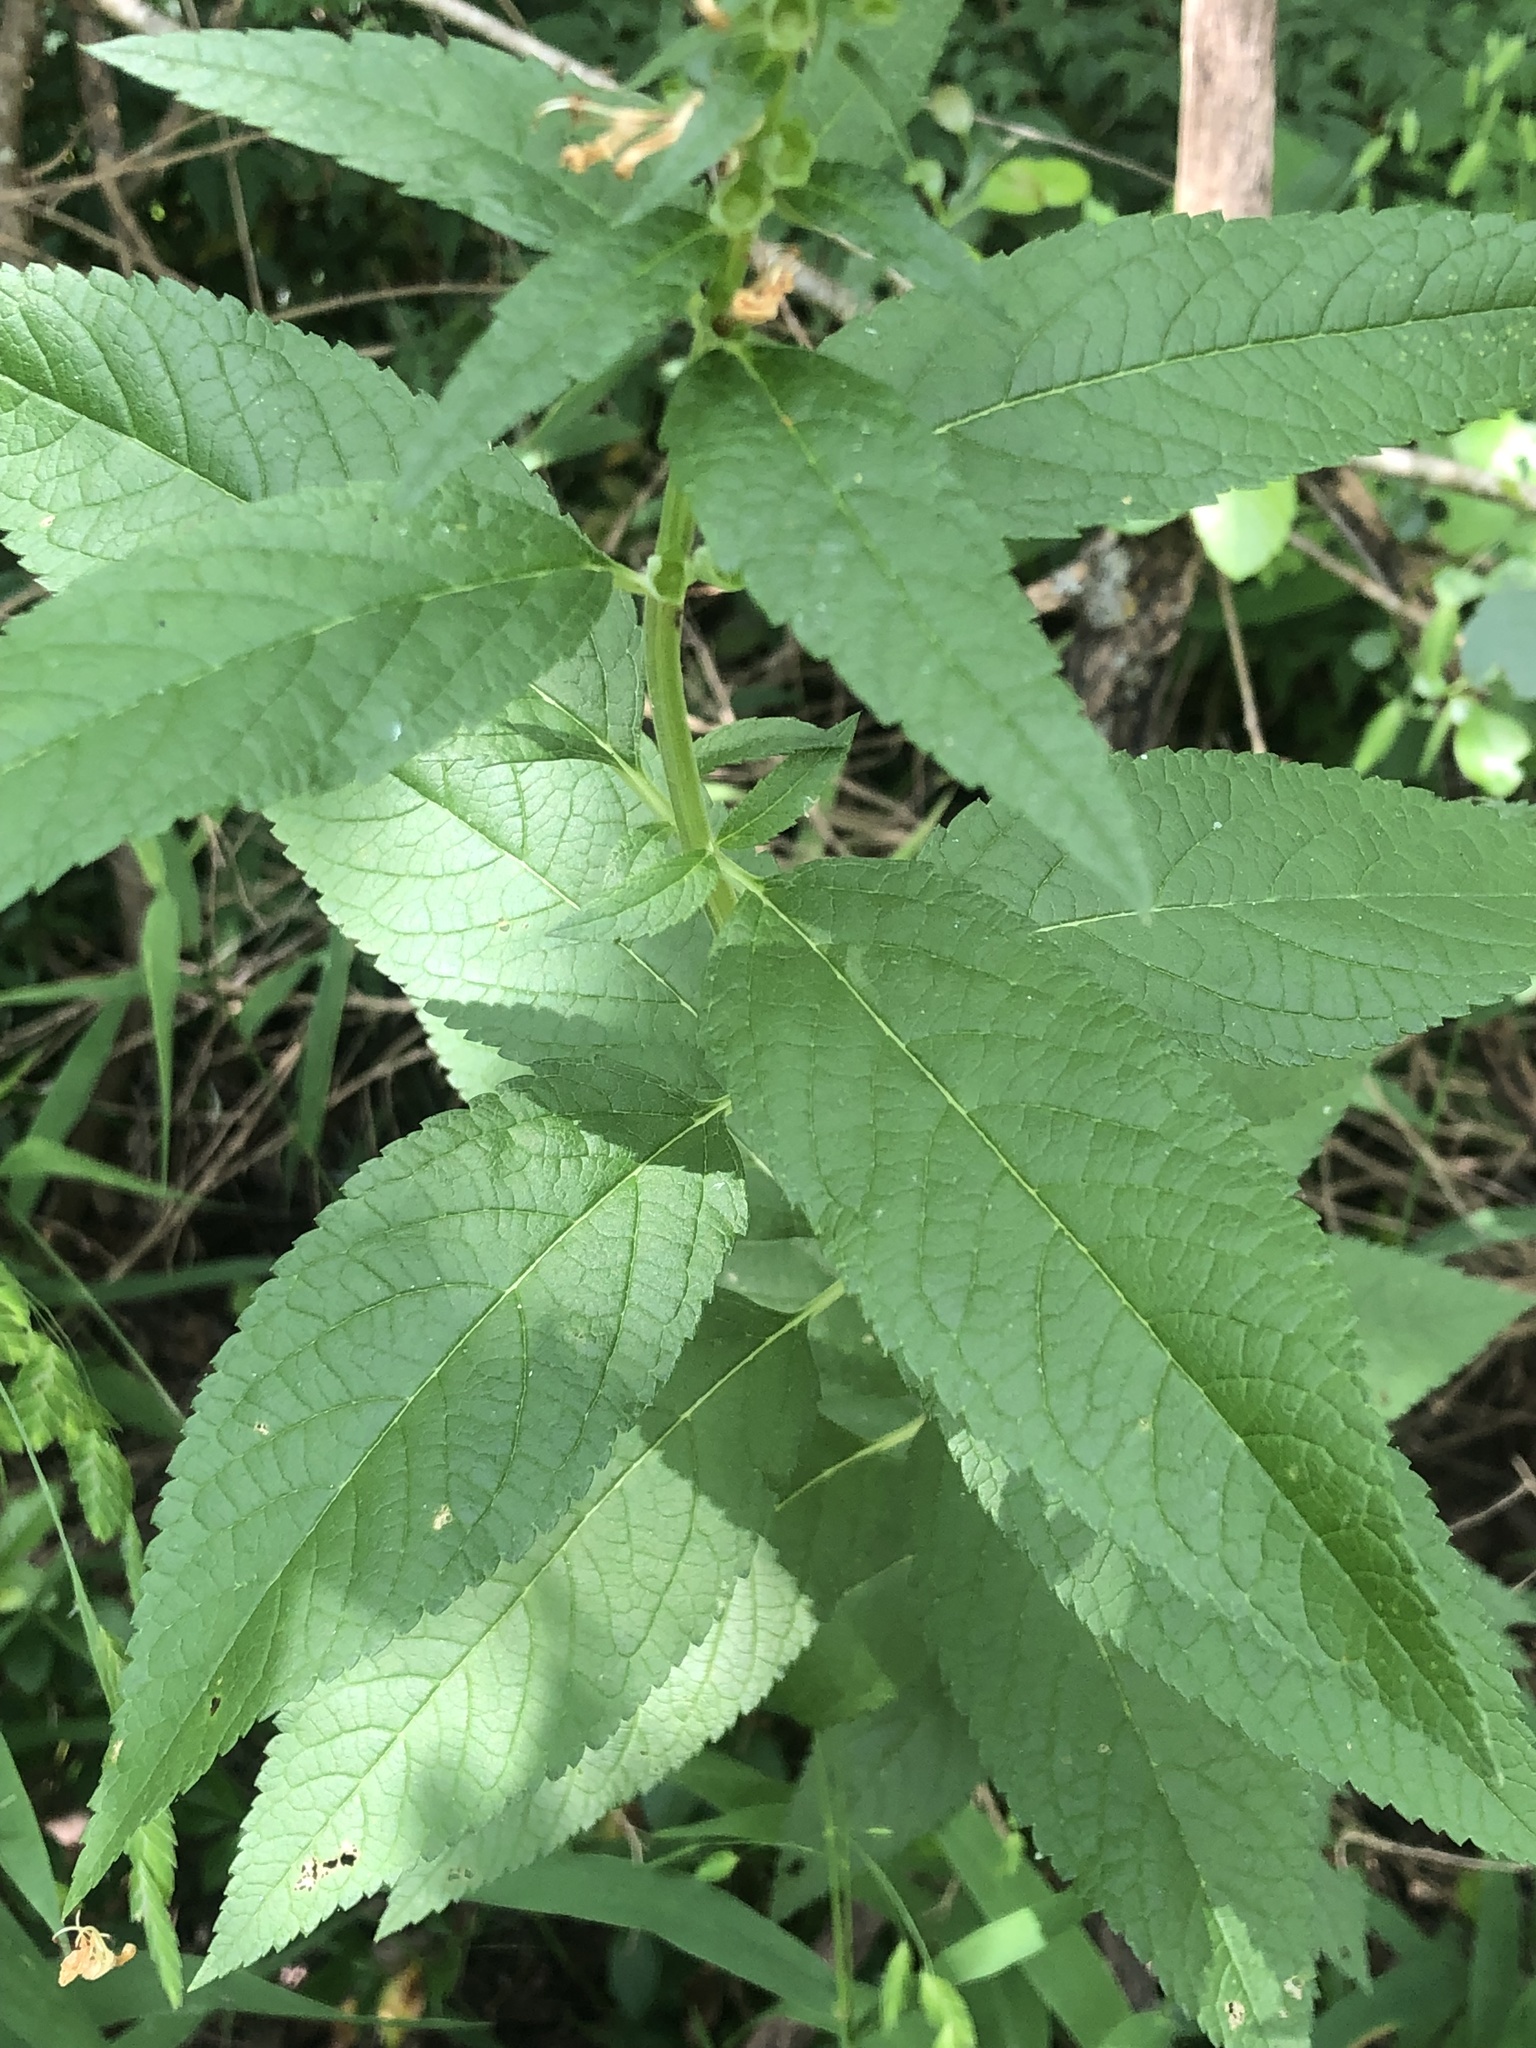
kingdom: Plantae
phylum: Tracheophyta
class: Magnoliopsida
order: Lamiales
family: Lamiaceae
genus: Teucrium
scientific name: Teucrium canadense
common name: American germander
